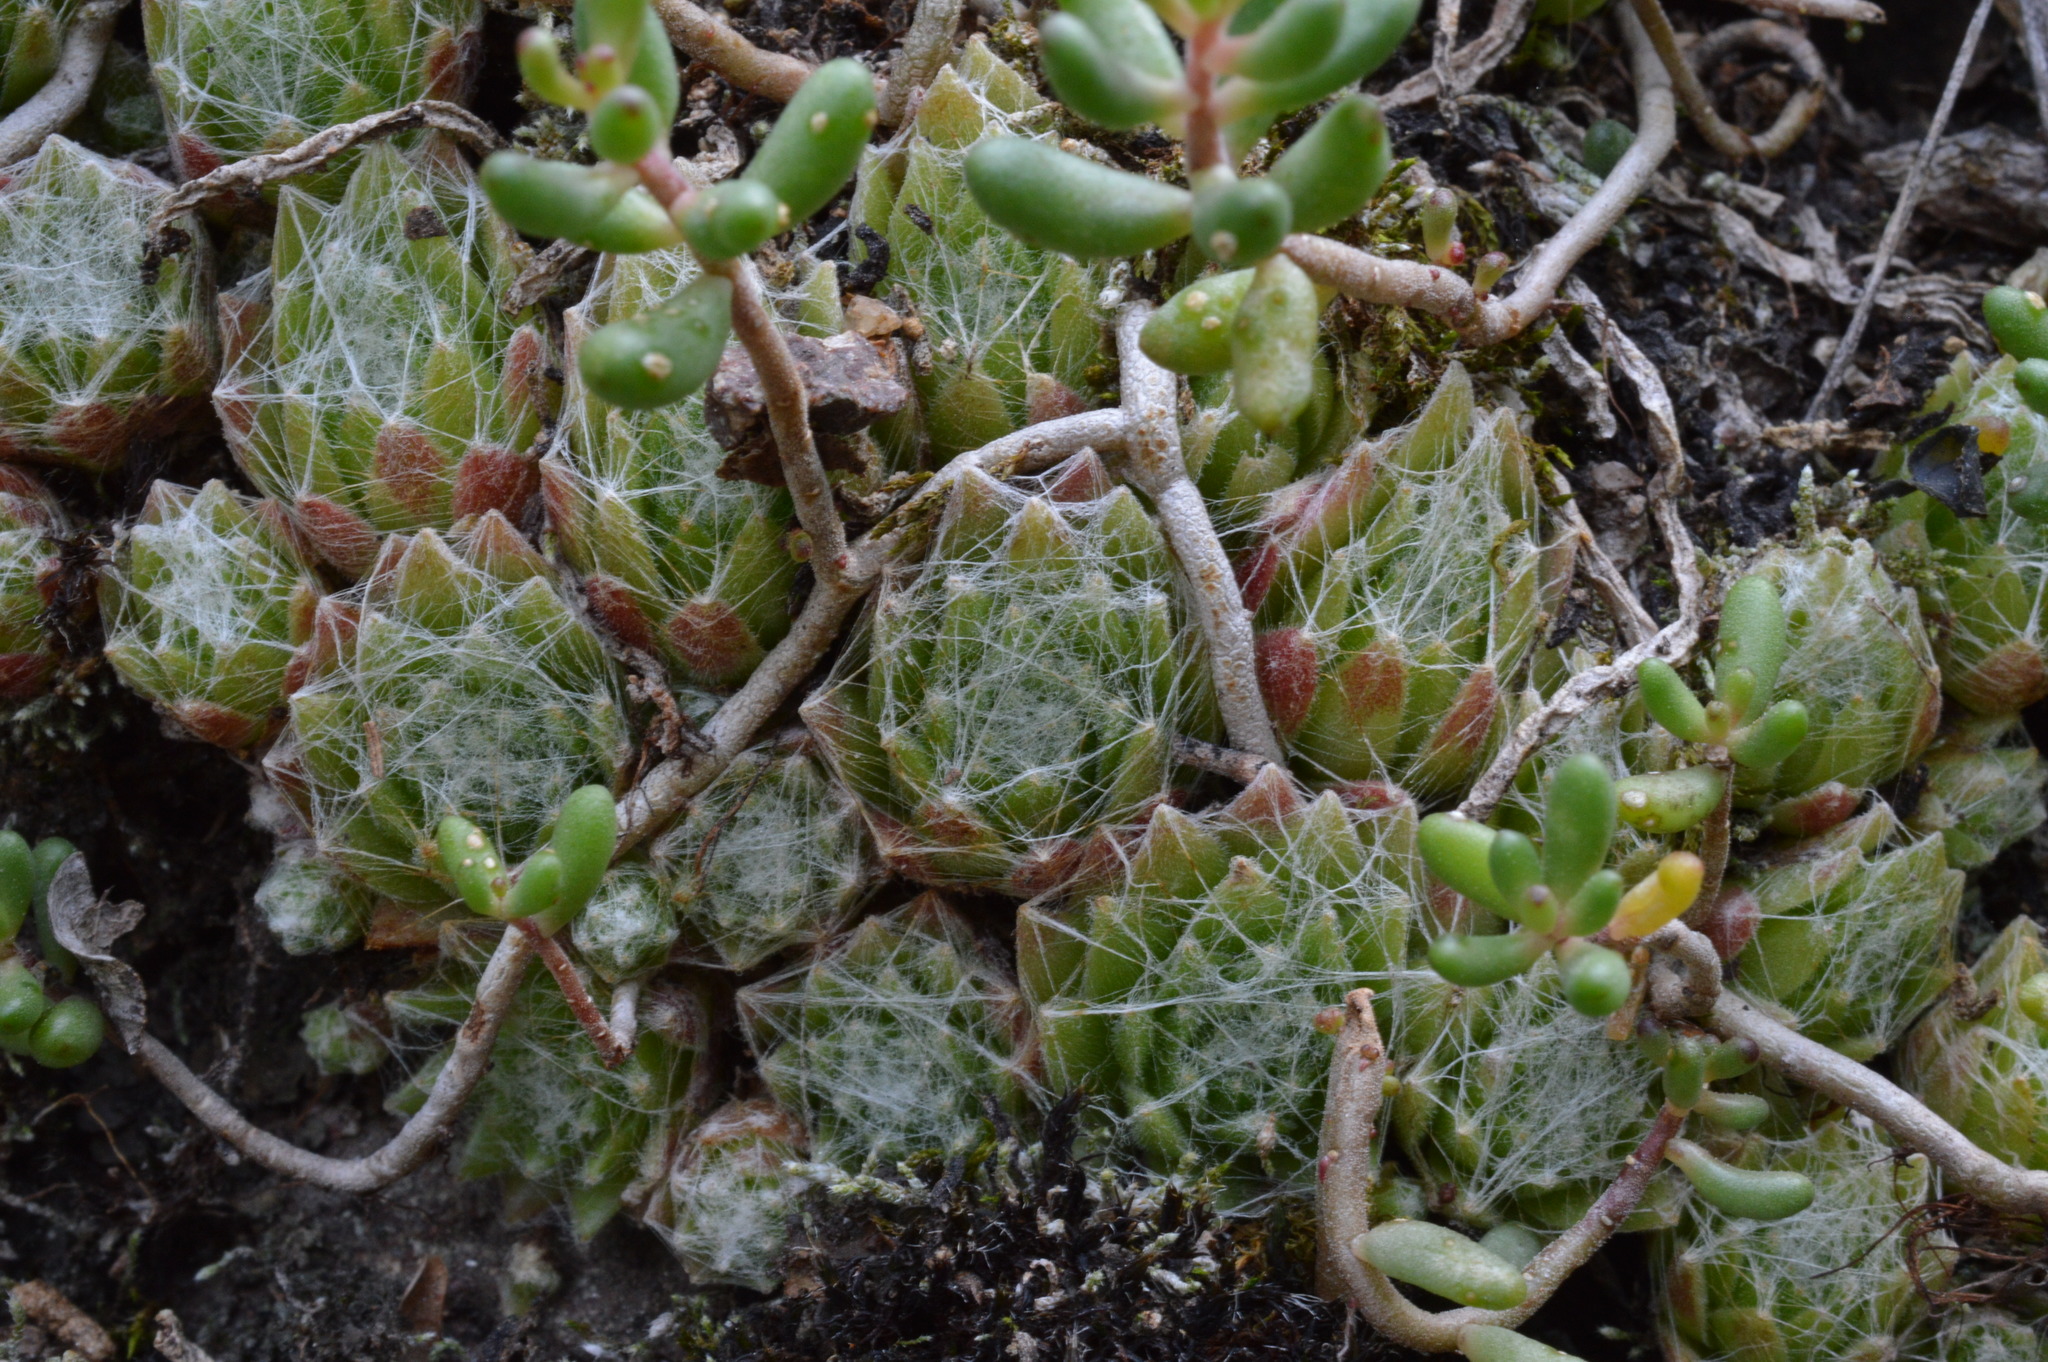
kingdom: Plantae
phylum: Tracheophyta
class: Magnoliopsida
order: Saxifragales
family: Crassulaceae
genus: Sempervivum
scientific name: Sempervivum arachnoideum
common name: Cobweb house-leek
